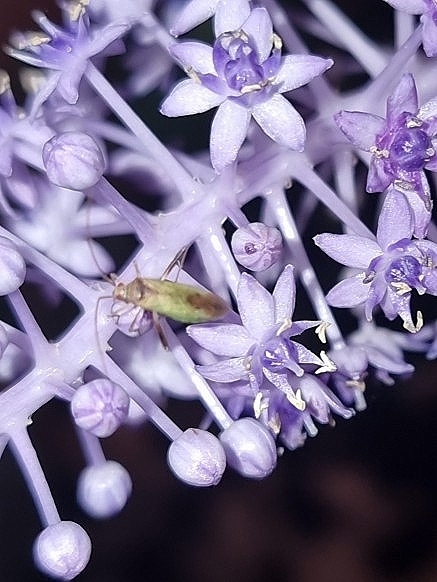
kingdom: Animalia
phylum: Arthropoda
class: Insecta
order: Hemiptera
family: Miridae
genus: Creontiades
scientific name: Creontiades pallidus
